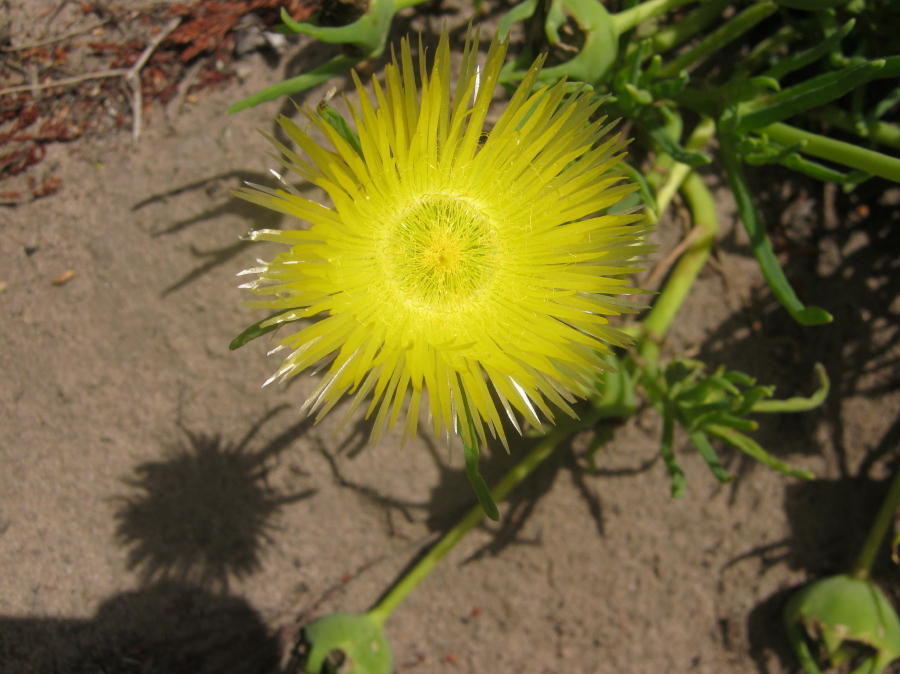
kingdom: Plantae
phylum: Tracheophyta
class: Magnoliopsida
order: Caryophyllales
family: Aizoaceae
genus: Conicosia
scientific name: Conicosia pugioniformis
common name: Narrow-leaved iceplant
